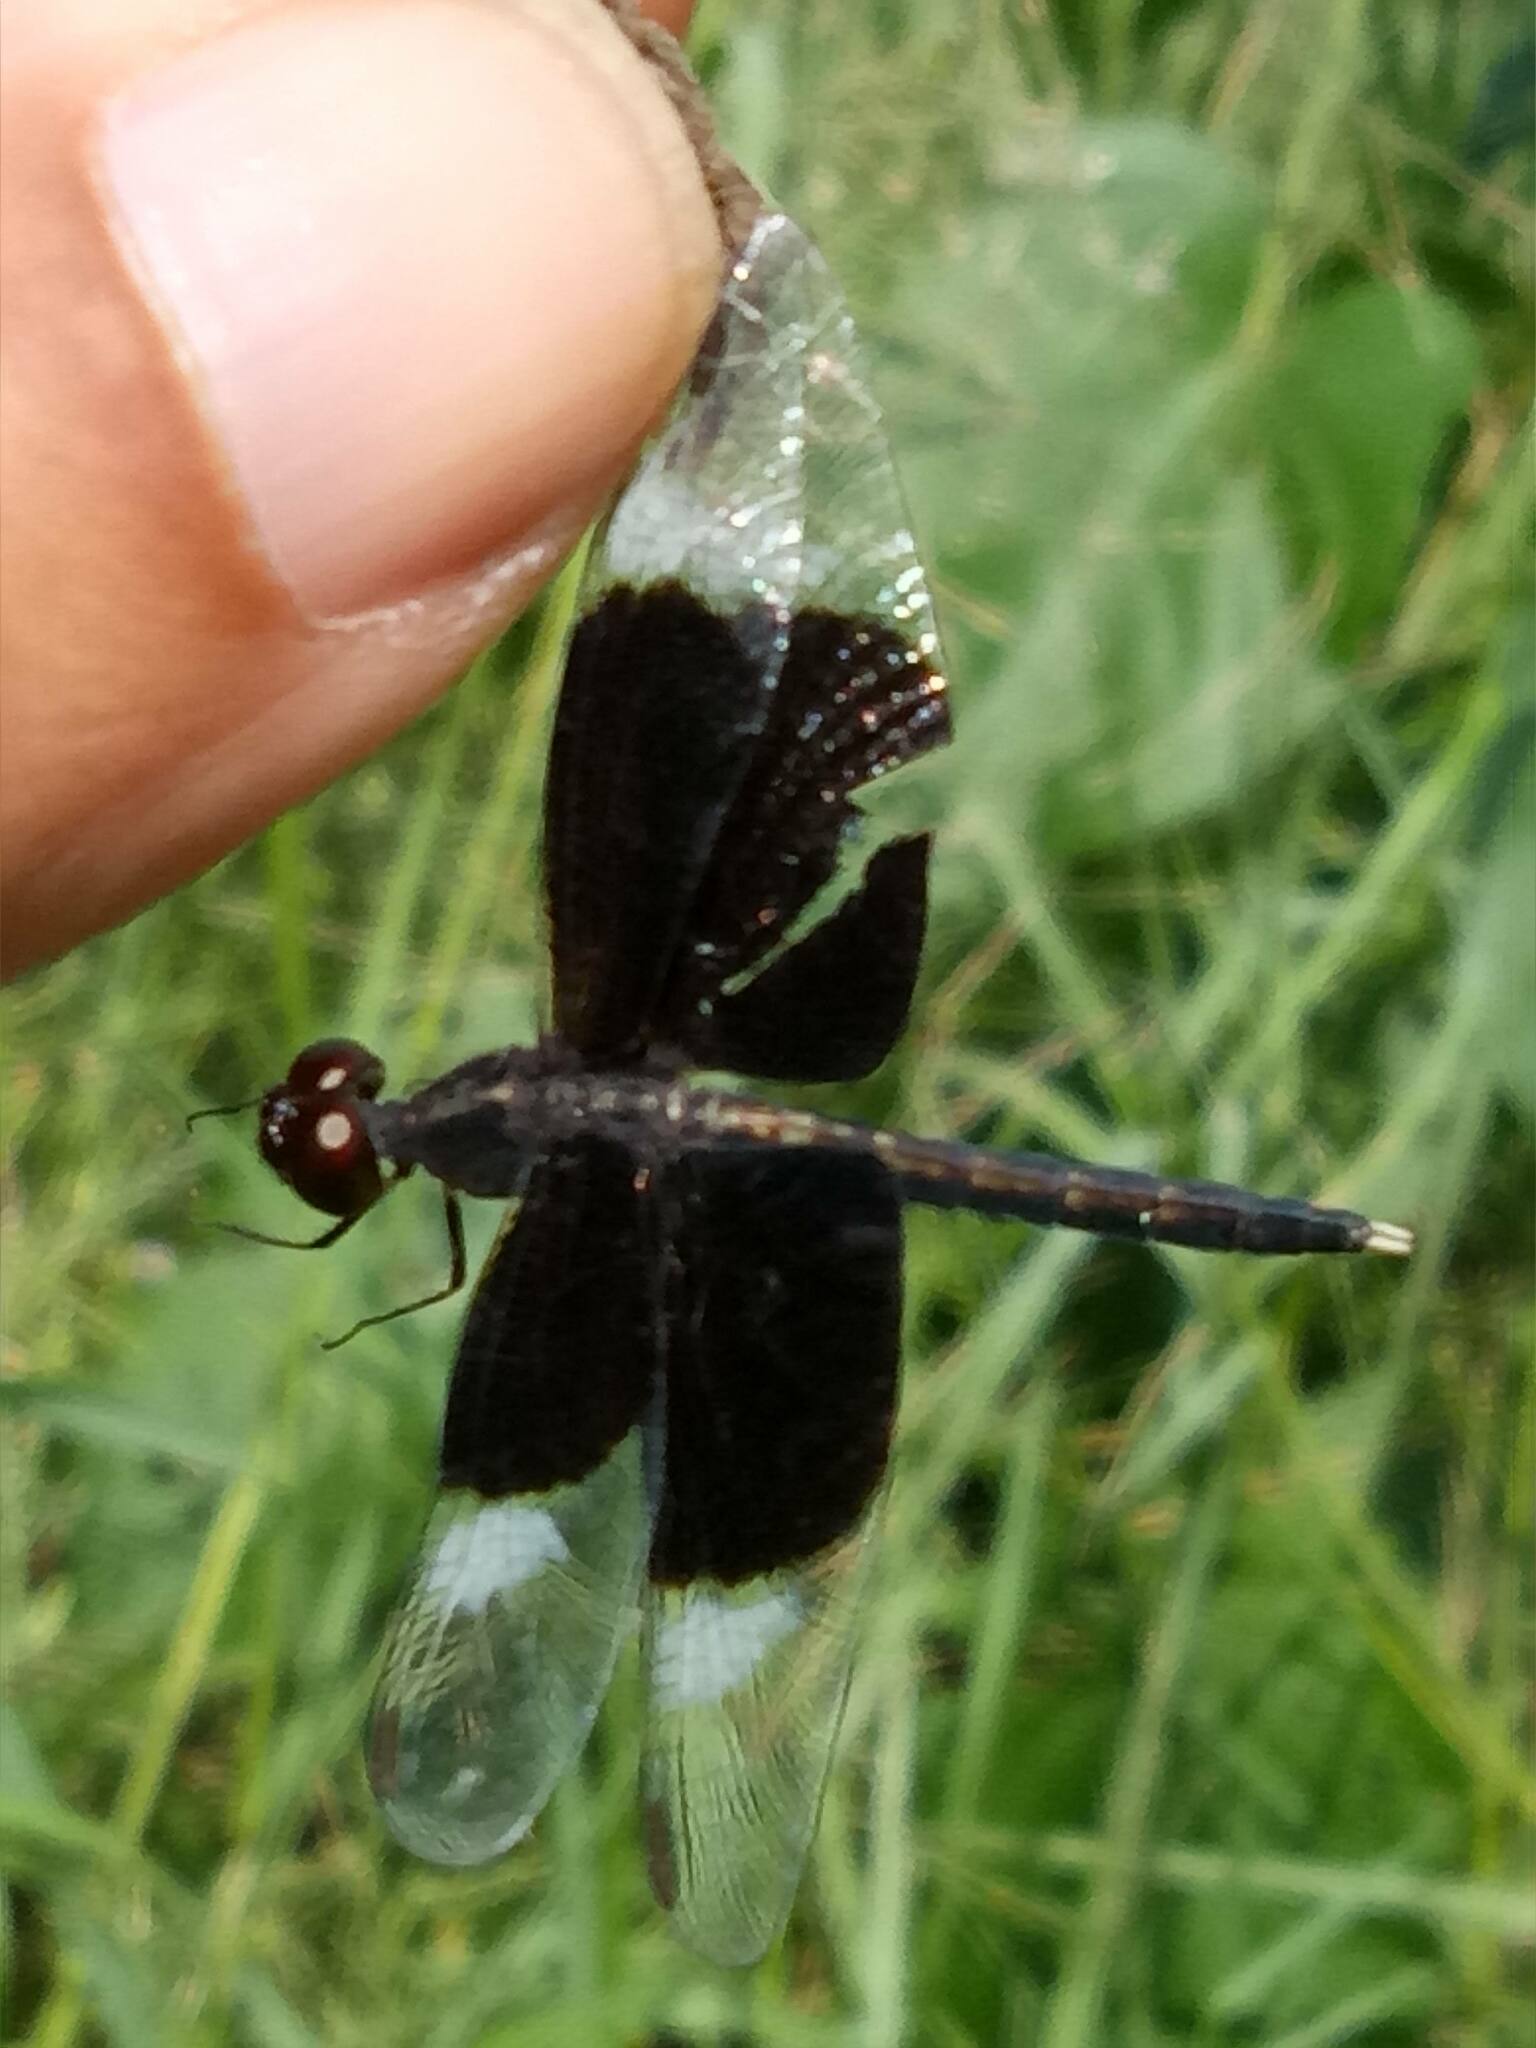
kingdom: Animalia
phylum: Arthropoda
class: Insecta
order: Odonata
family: Libellulidae
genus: Neurothemis
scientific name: Neurothemis tullia
